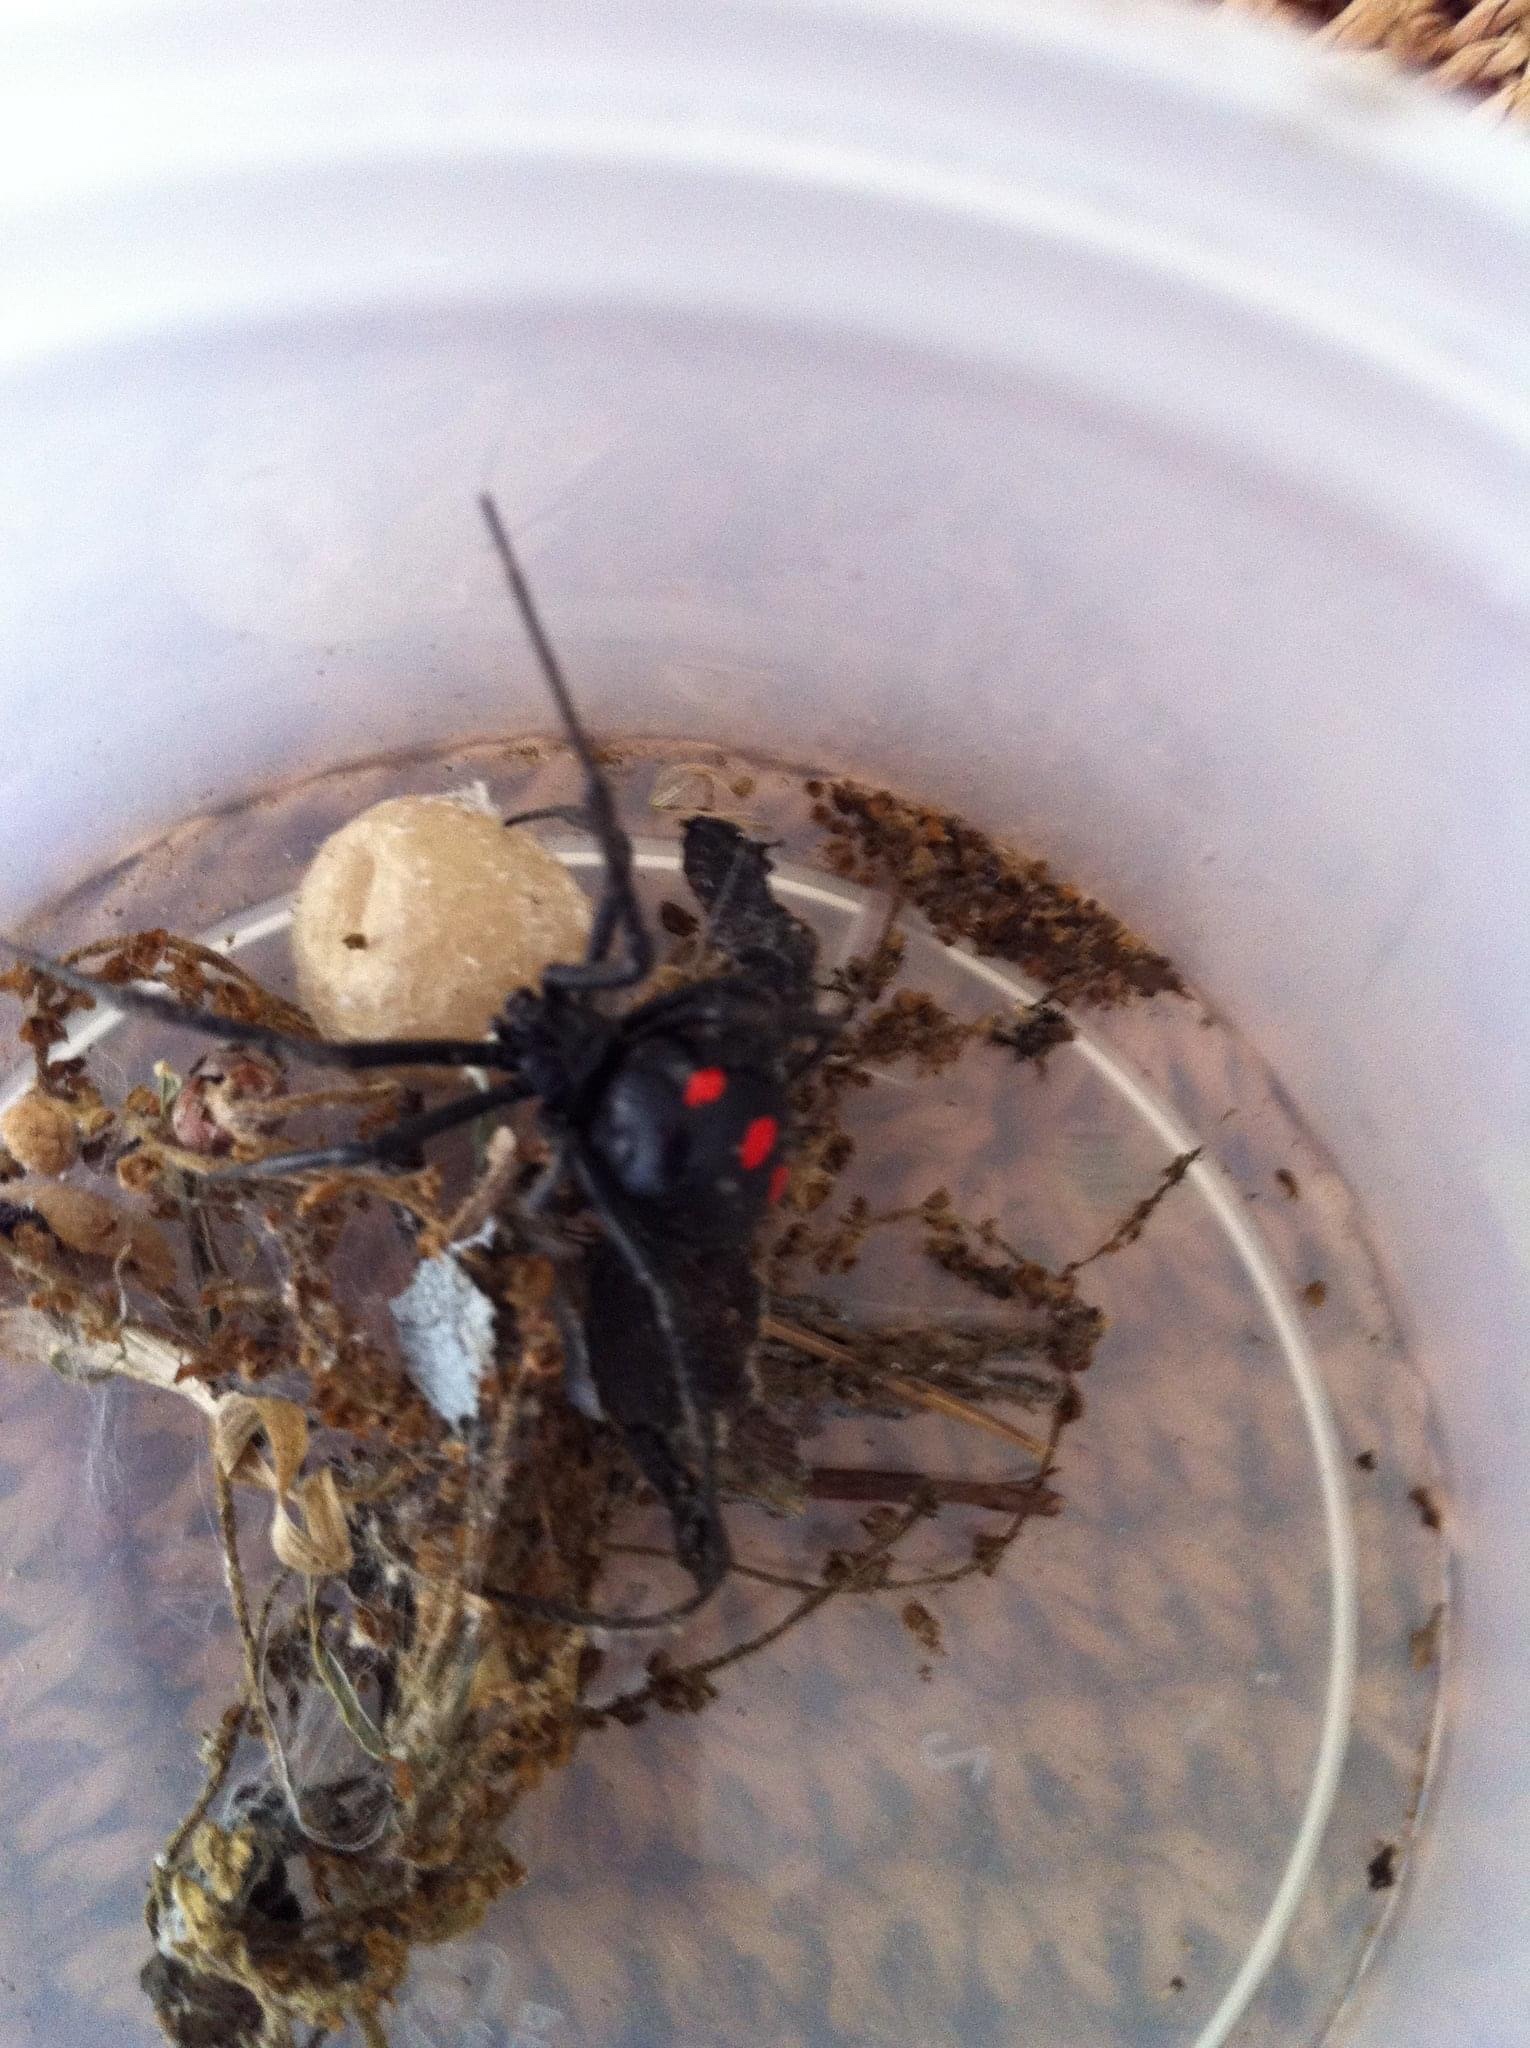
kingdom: Animalia
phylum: Arthropoda
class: Arachnida
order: Araneae
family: Theridiidae
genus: Latrodectus
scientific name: Latrodectus variolus
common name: Northern black widow
